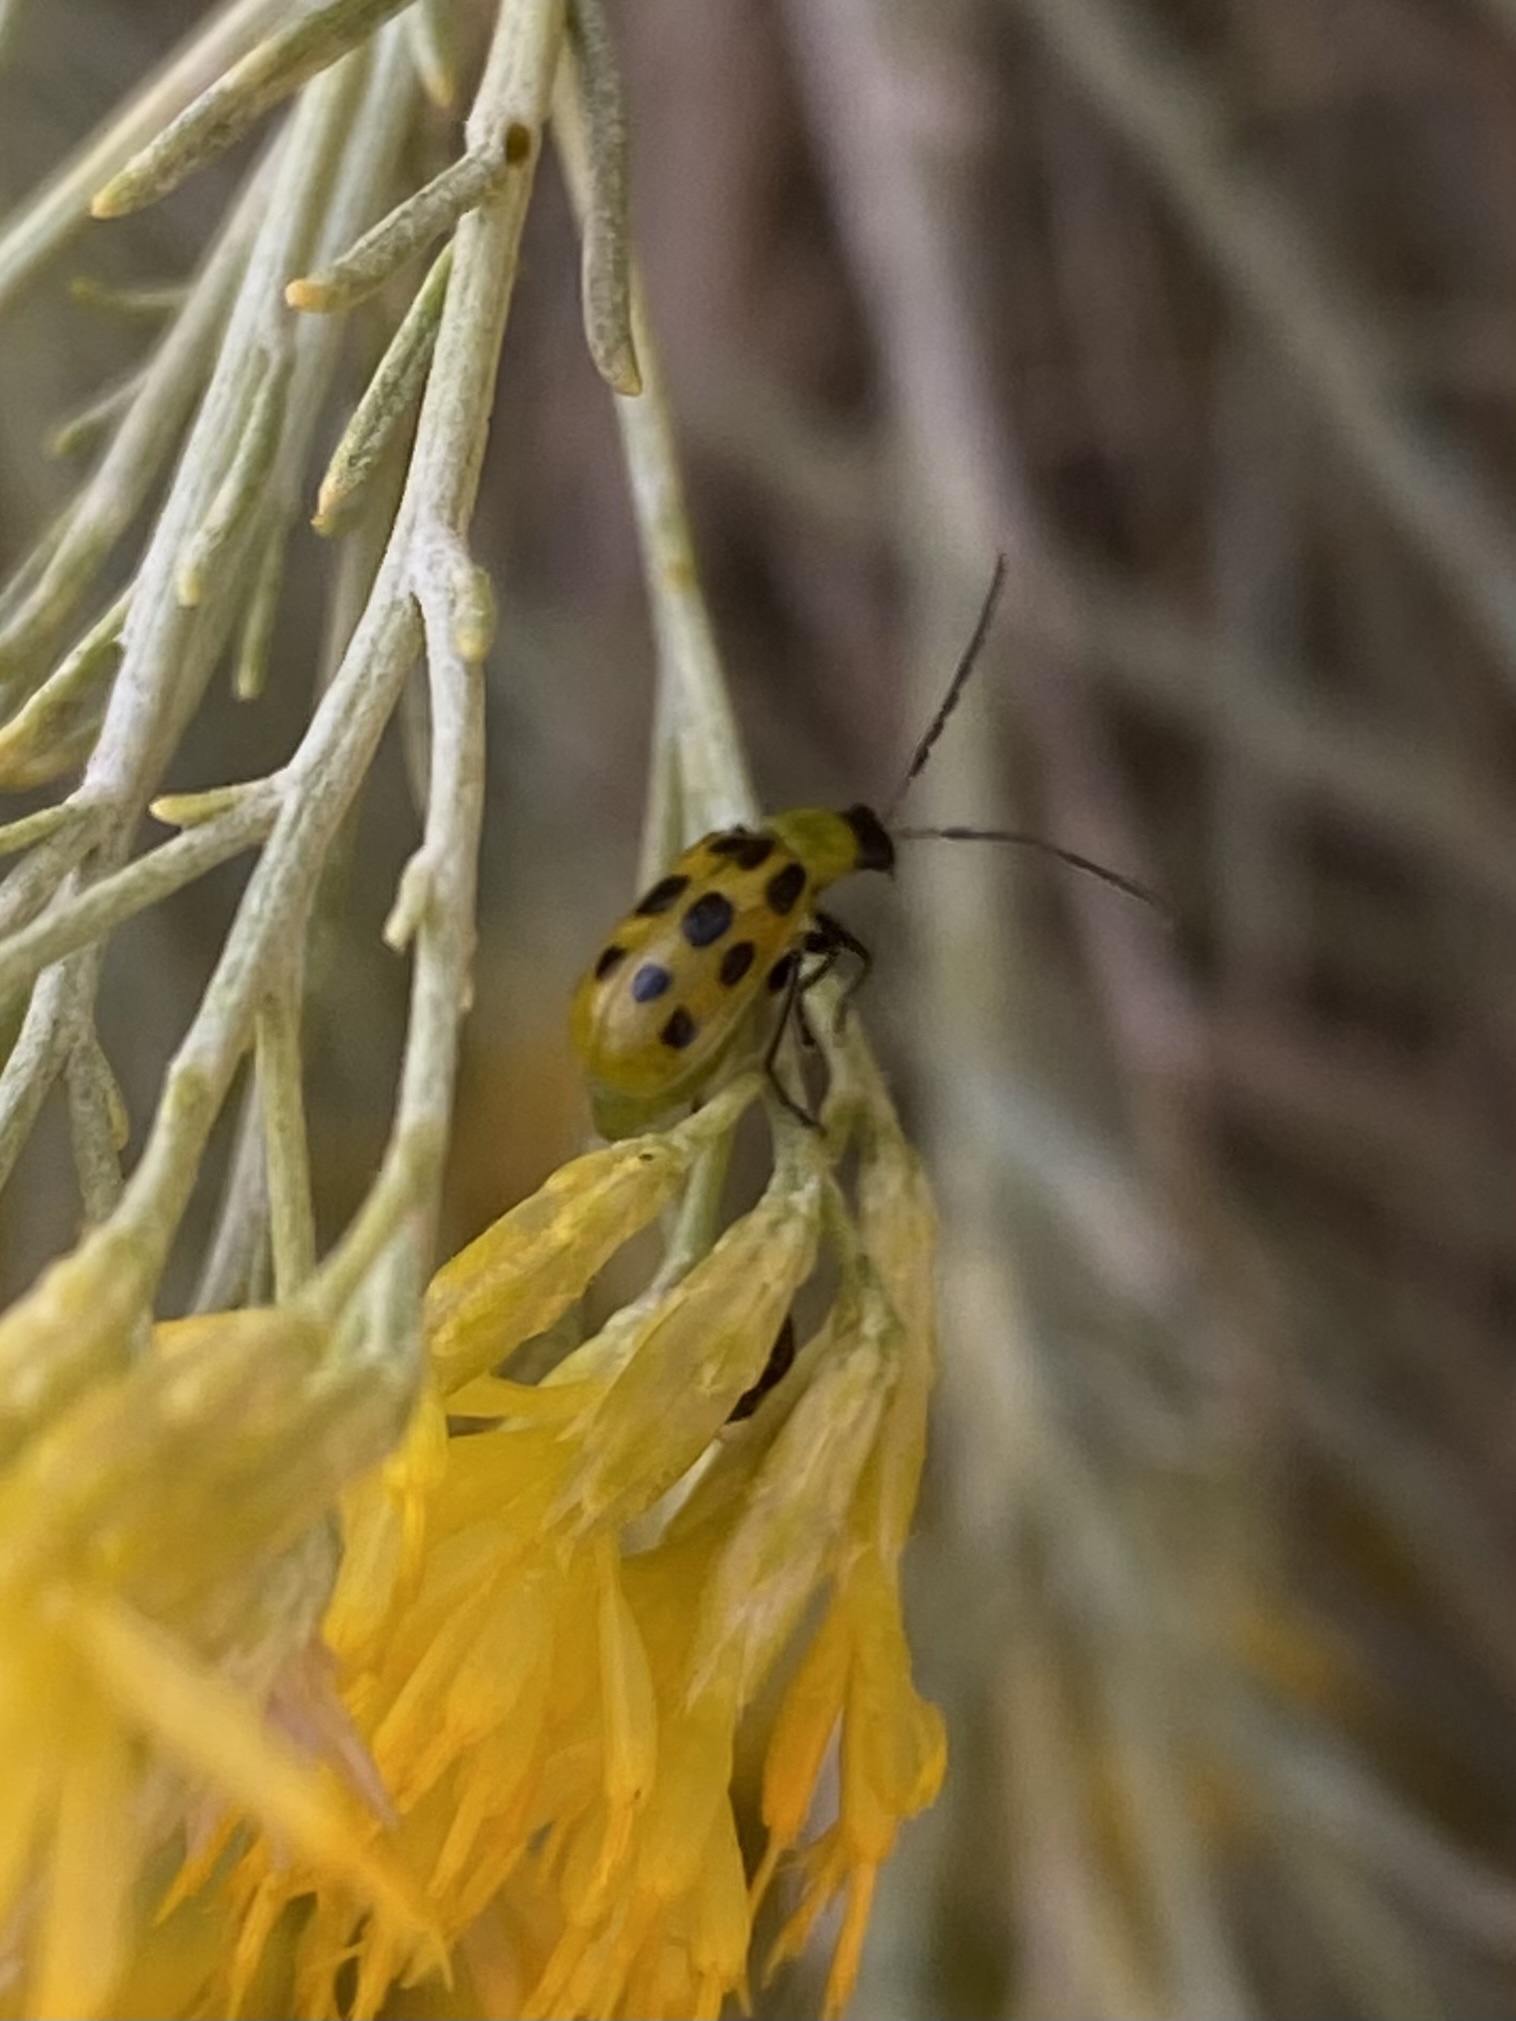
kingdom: Animalia
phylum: Arthropoda
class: Insecta
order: Coleoptera
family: Chrysomelidae
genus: Diabrotica
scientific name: Diabrotica undecimpunctata
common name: Spotted cucumber beetle
